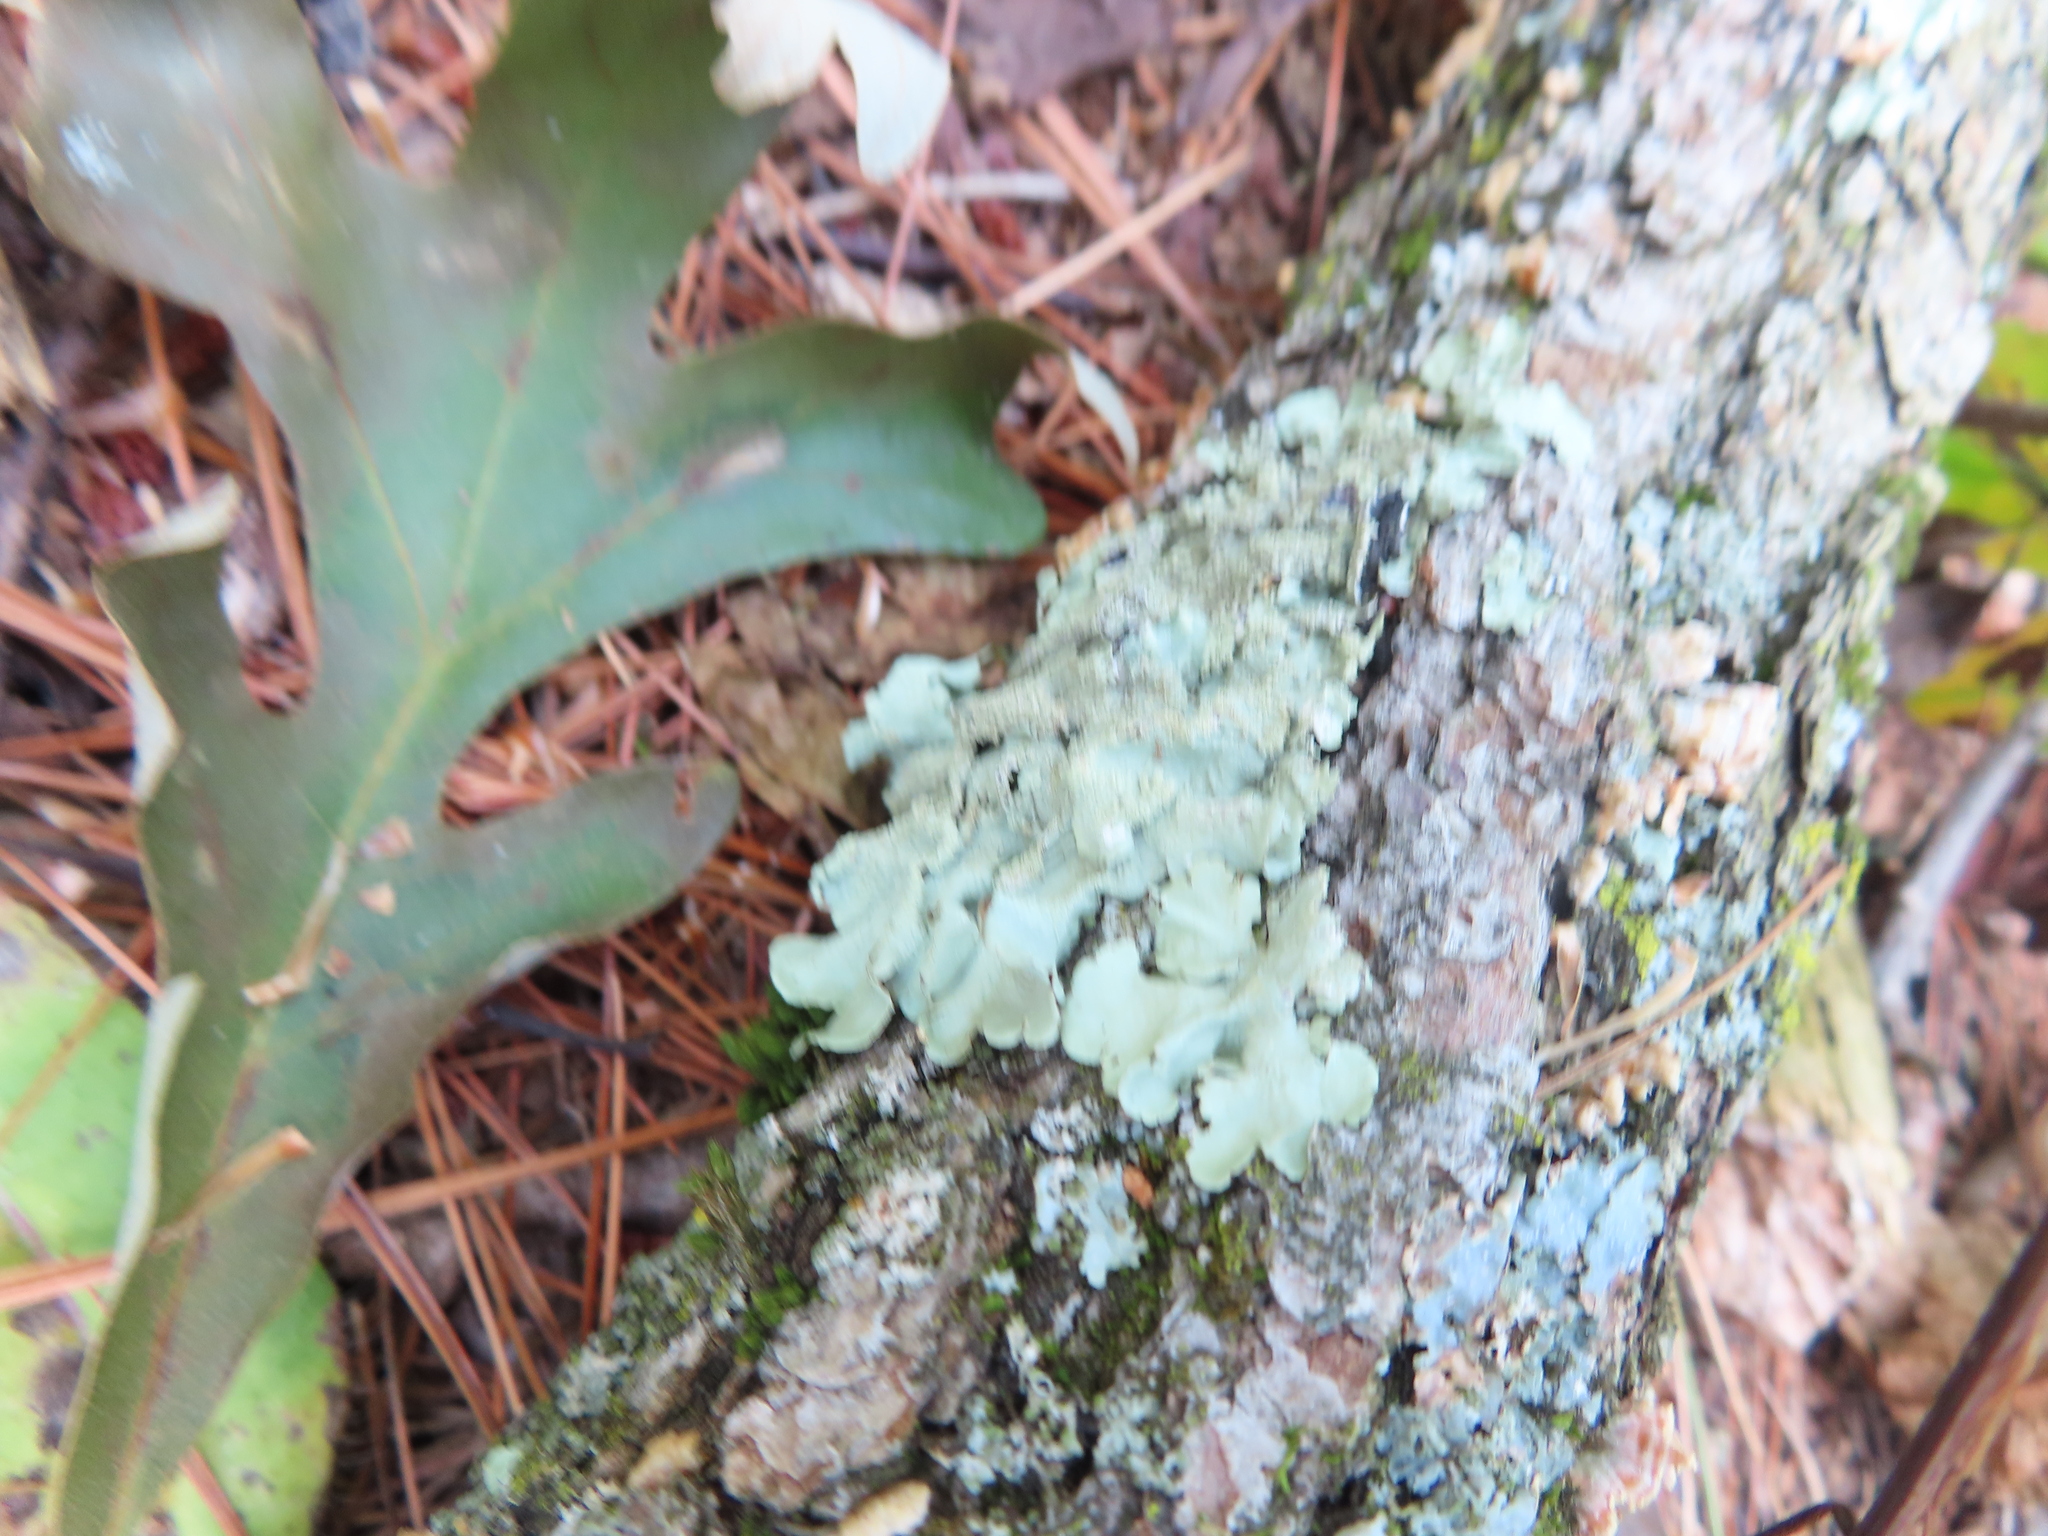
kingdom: Fungi
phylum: Ascomycota
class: Lecanoromycetes
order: Lecanorales
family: Parmeliaceae
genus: Flavoparmelia
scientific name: Flavoparmelia caperata
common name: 40-mile per hour lichen
